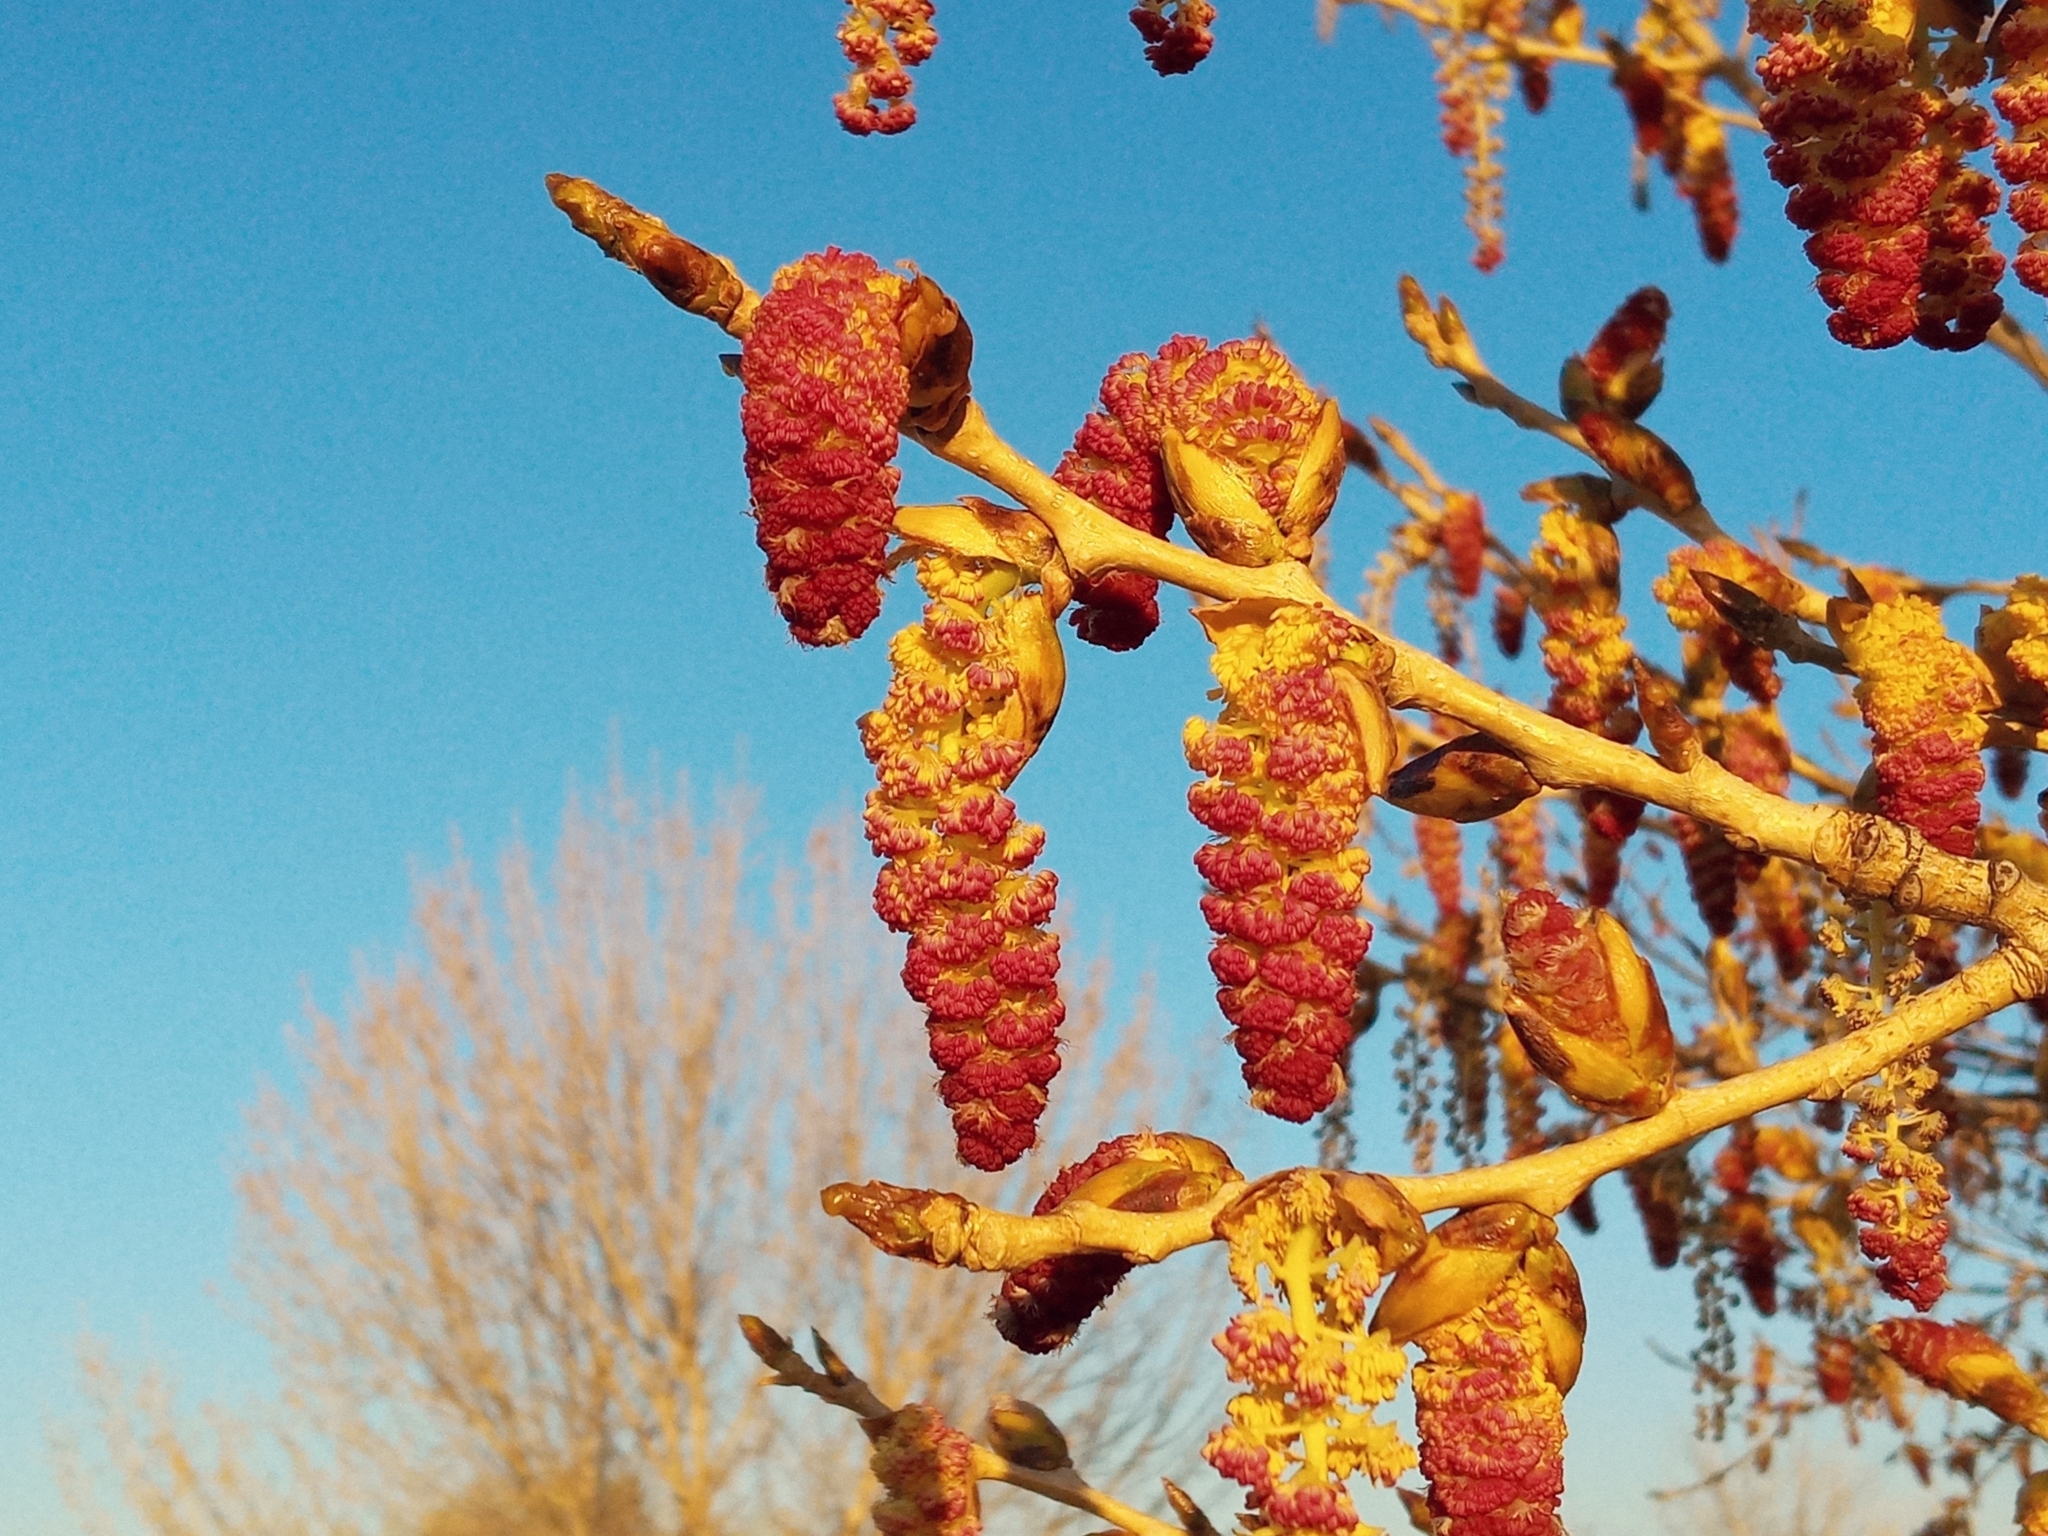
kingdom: Plantae
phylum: Tracheophyta
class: Magnoliopsida
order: Malpighiales
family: Salicaceae
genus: Populus
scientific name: Populus fremontii
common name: Fremont's cottonwood
